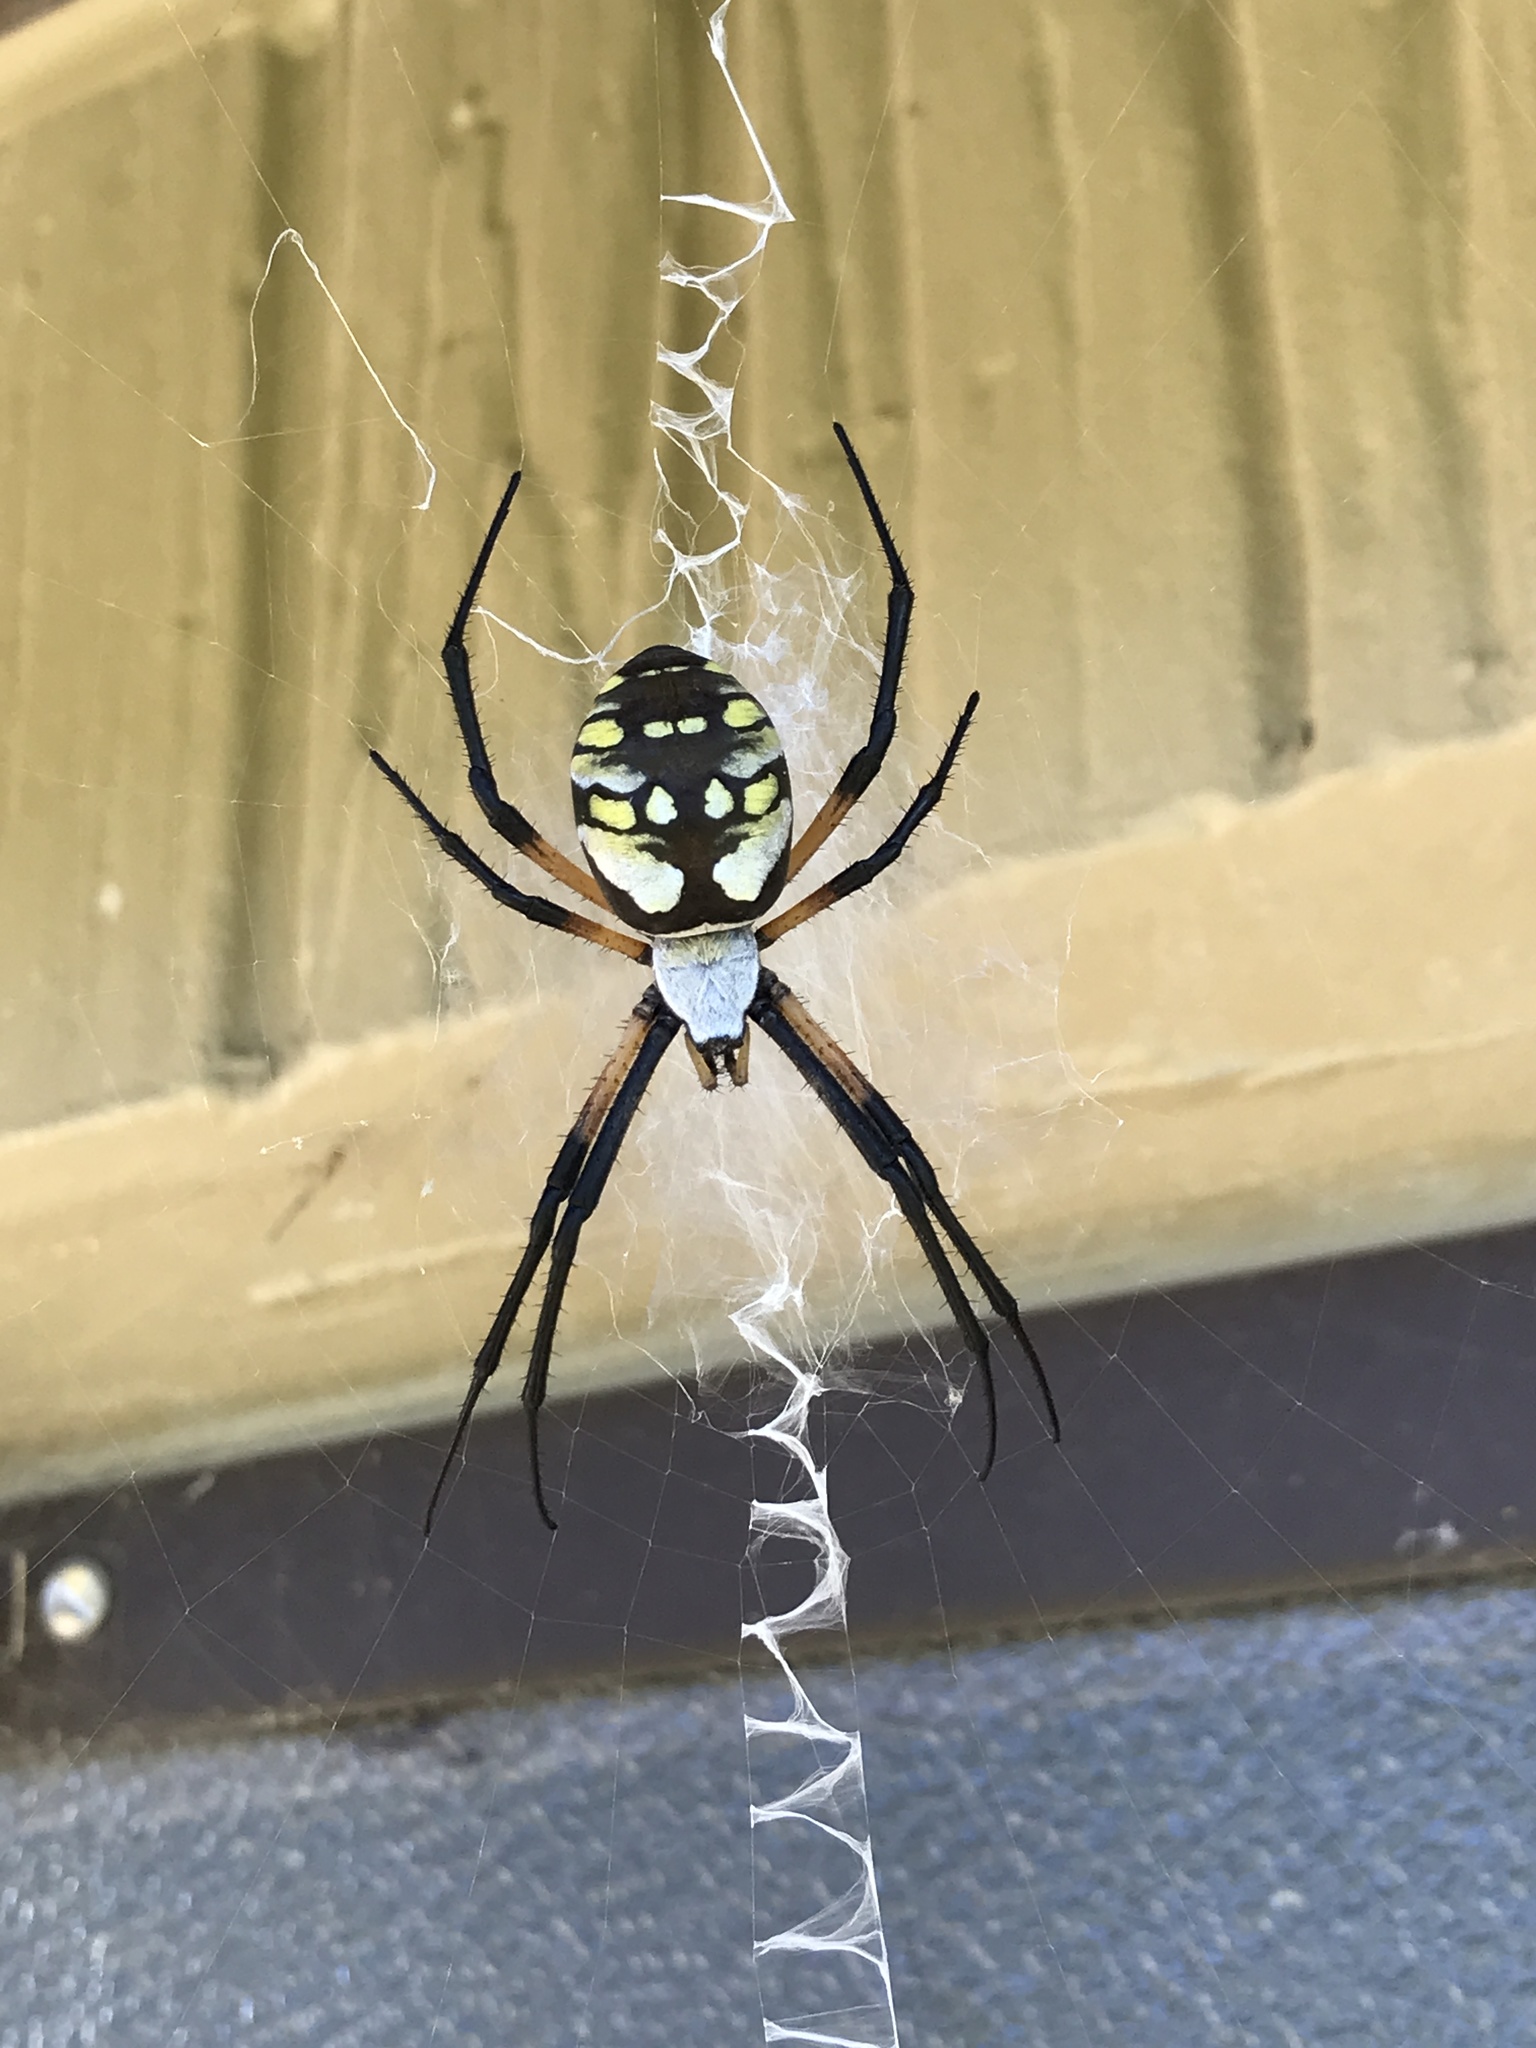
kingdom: Animalia
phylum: Arthropoda
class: Arachnida
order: Araneae
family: Araneidae
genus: Argiope
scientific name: Argiope aurantia
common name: Orb weavers
